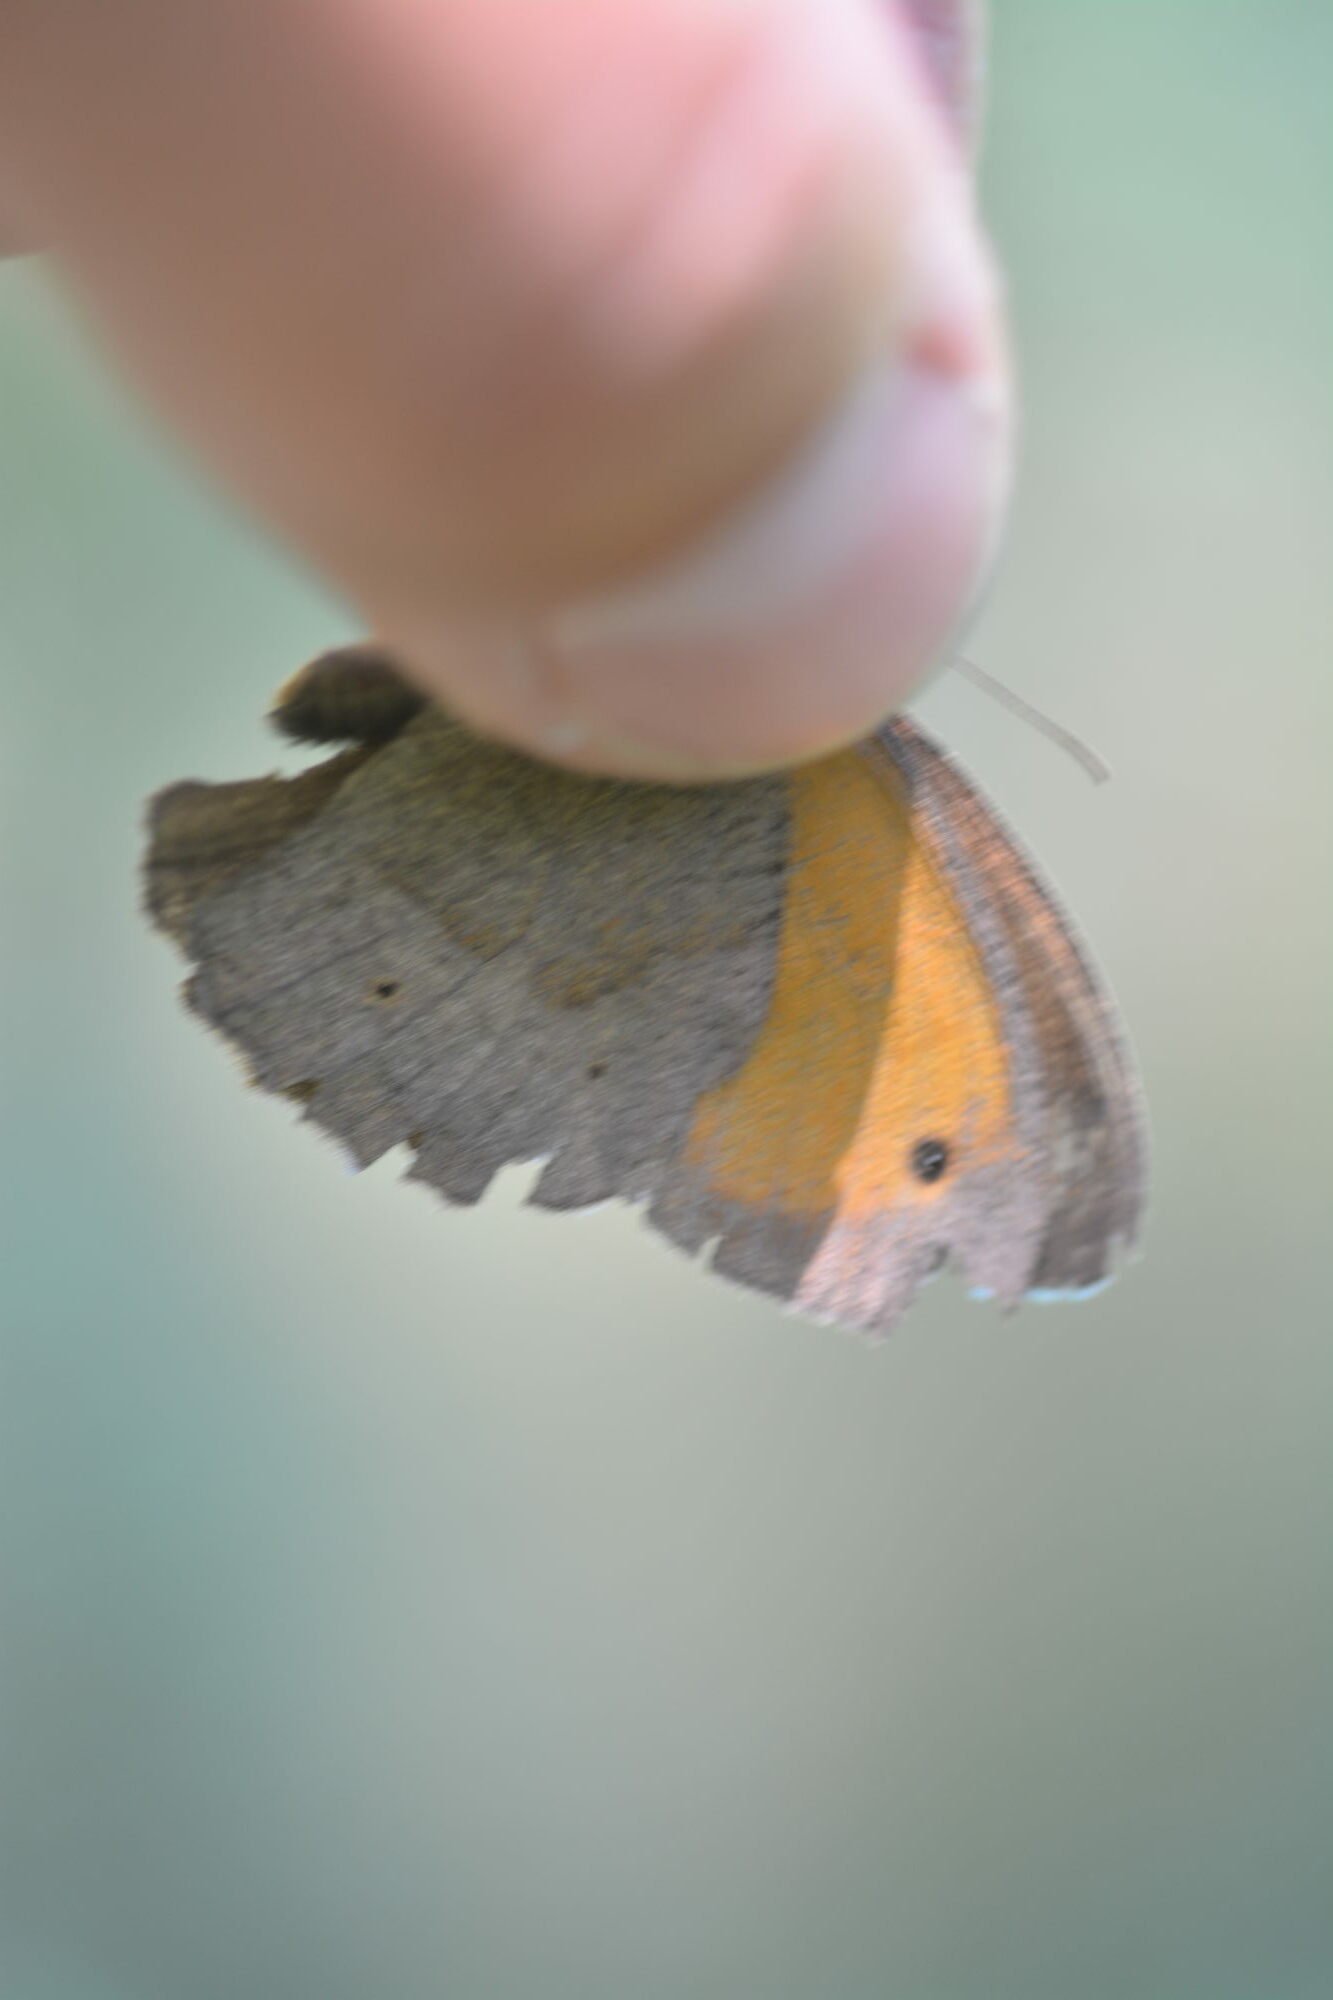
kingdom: Animalia
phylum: Arthropoda
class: Insecta
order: Lepidoptera
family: Nymphalidae
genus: Maniola
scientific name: Maniola jurtina
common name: Meadow brown
